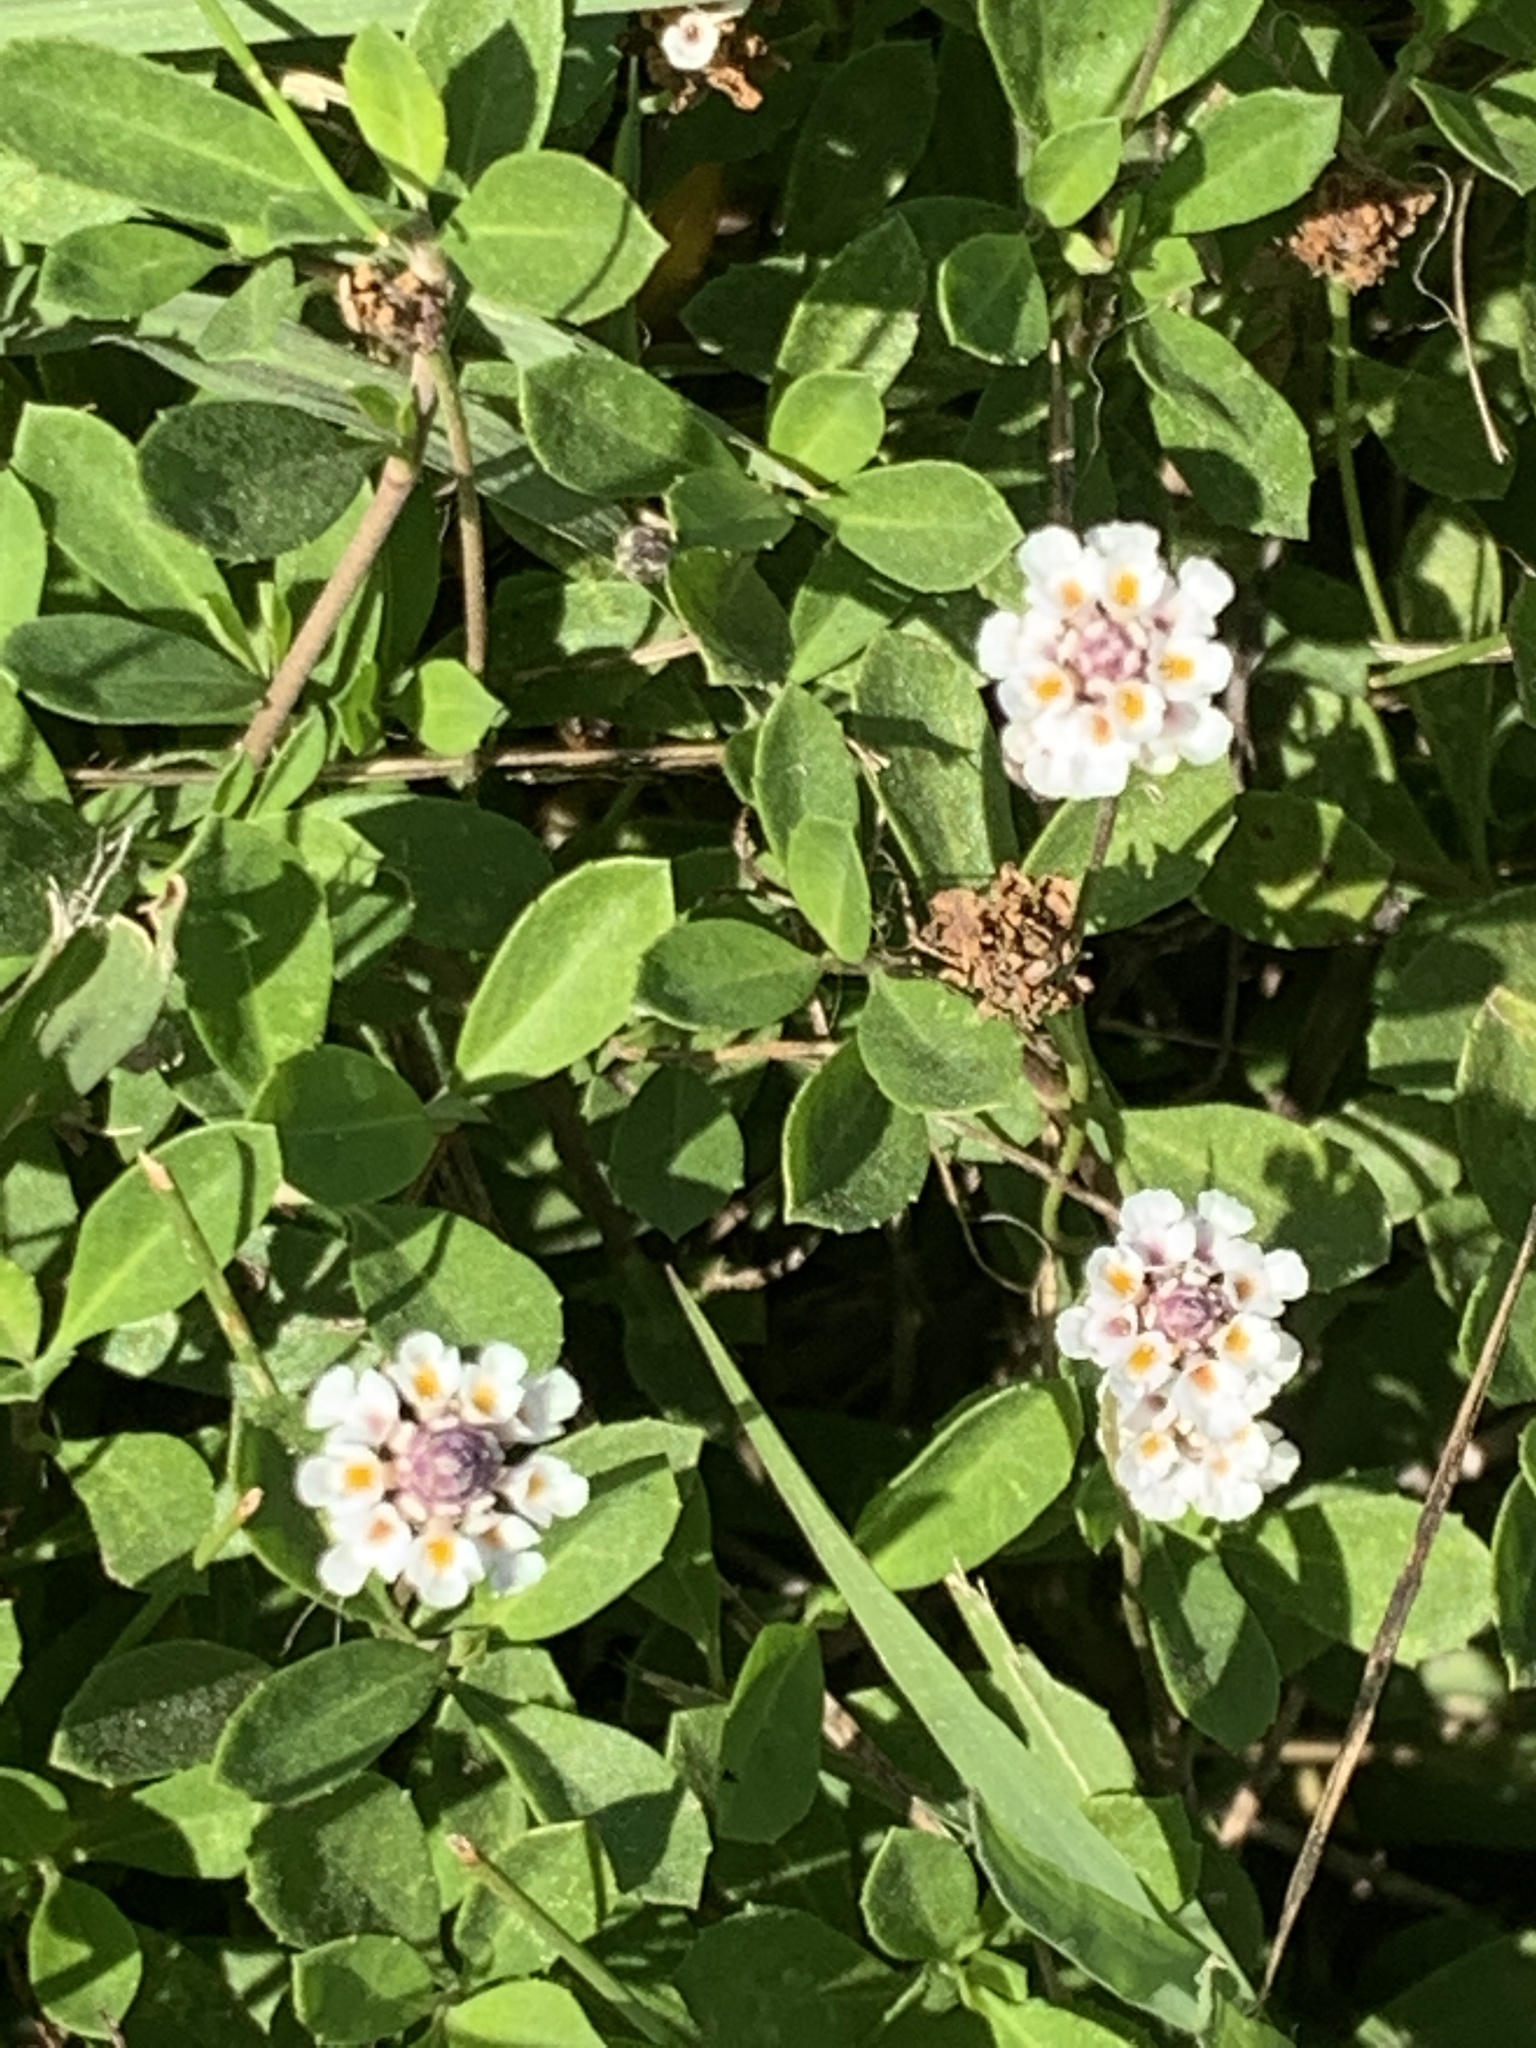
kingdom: Plantae
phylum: Tracheophyta
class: Magnoliopsida
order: Lamiales
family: Verbenaceae
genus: Phyla
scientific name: Phyla nodiflora
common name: Frogfruit
